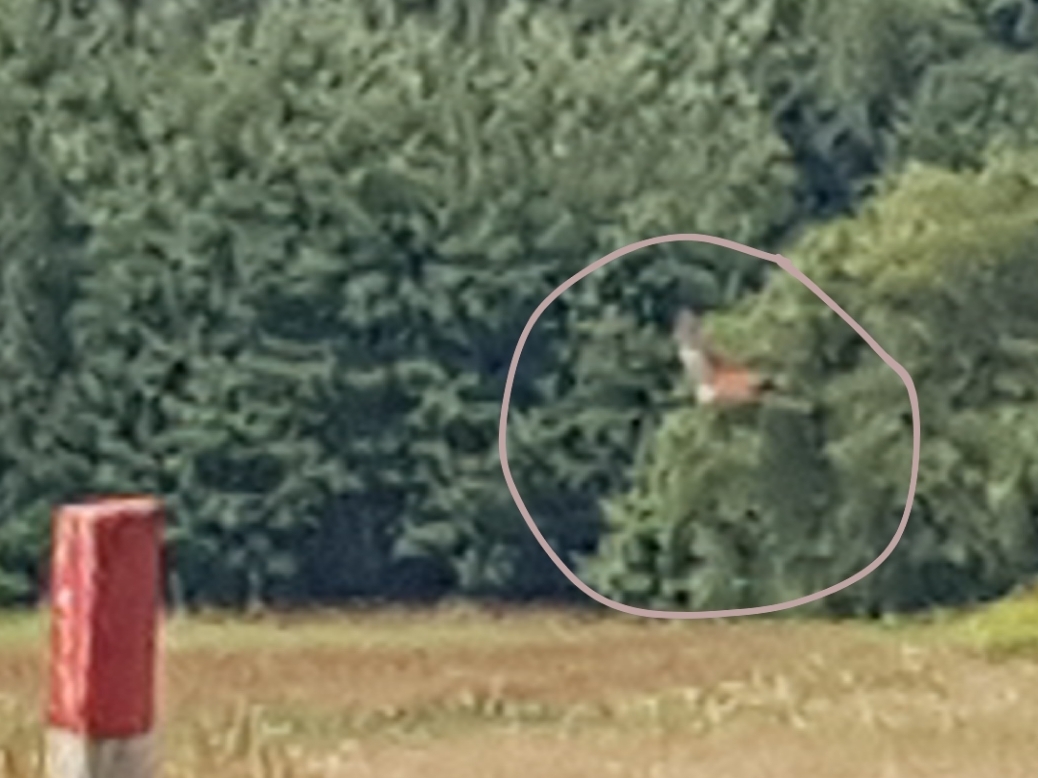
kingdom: Animalia
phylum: Chordata
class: Aves
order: Passeriformes
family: Laniidae
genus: Lanius
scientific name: Lanius collurio
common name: Red-backed shrike
